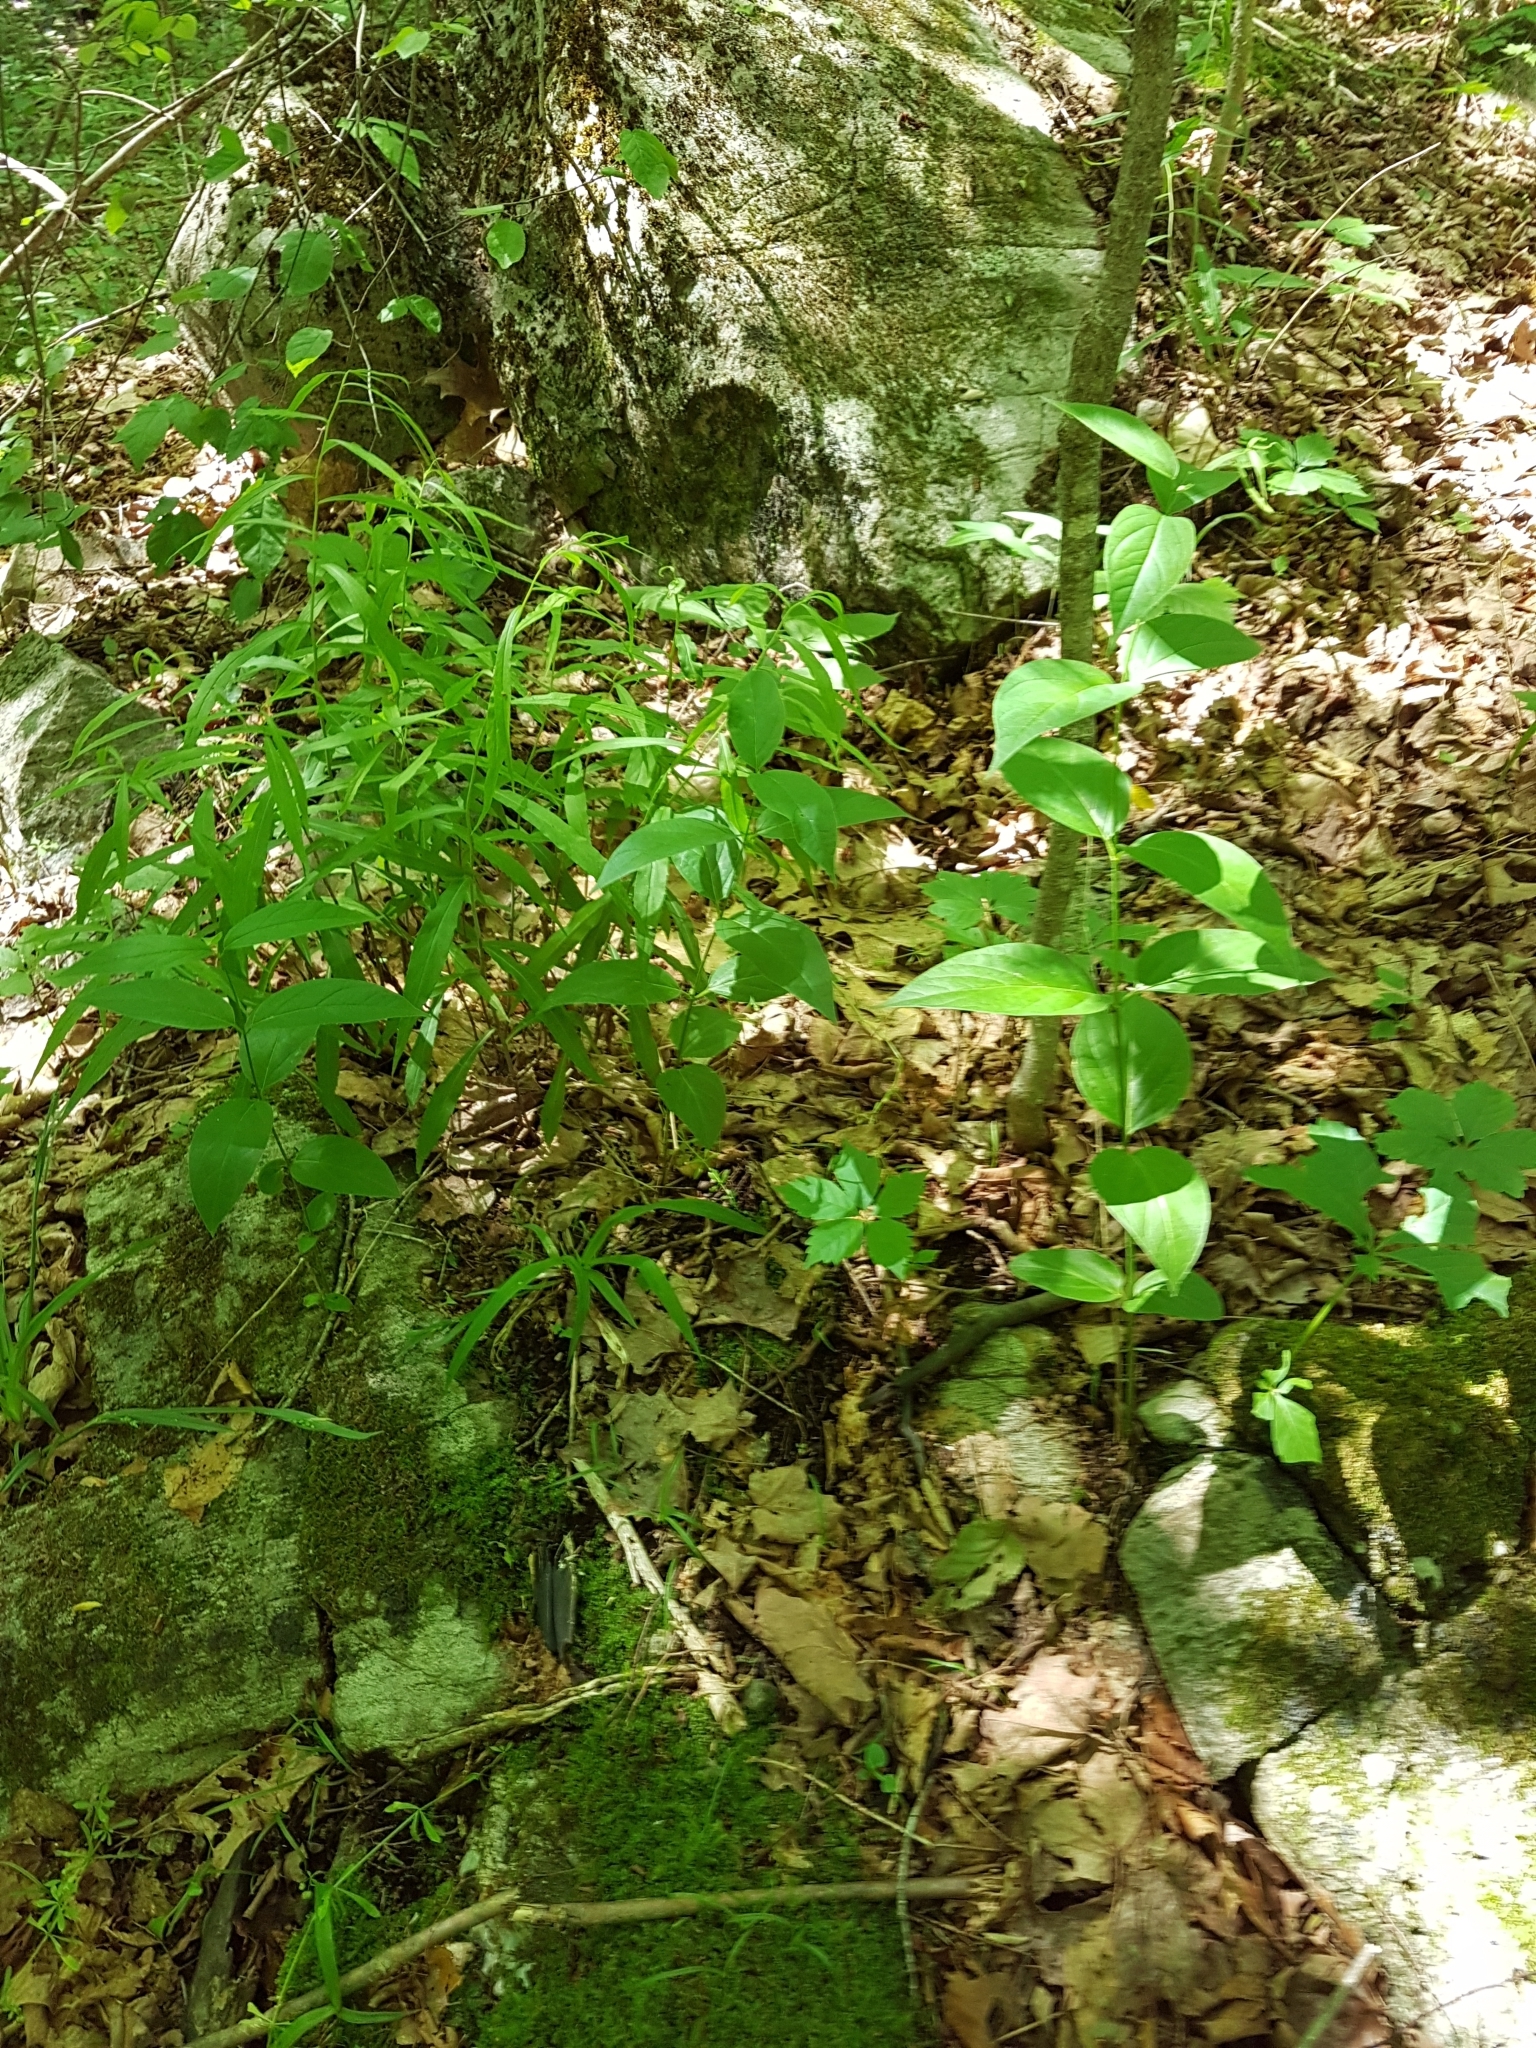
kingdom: Plantae
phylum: Tracheophyta
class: Magnoliopsida
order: Gentianales
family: Apocynaceae
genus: Vincetoxicum
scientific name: Vincetoxicum rossicum
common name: Dog-strangling vine
